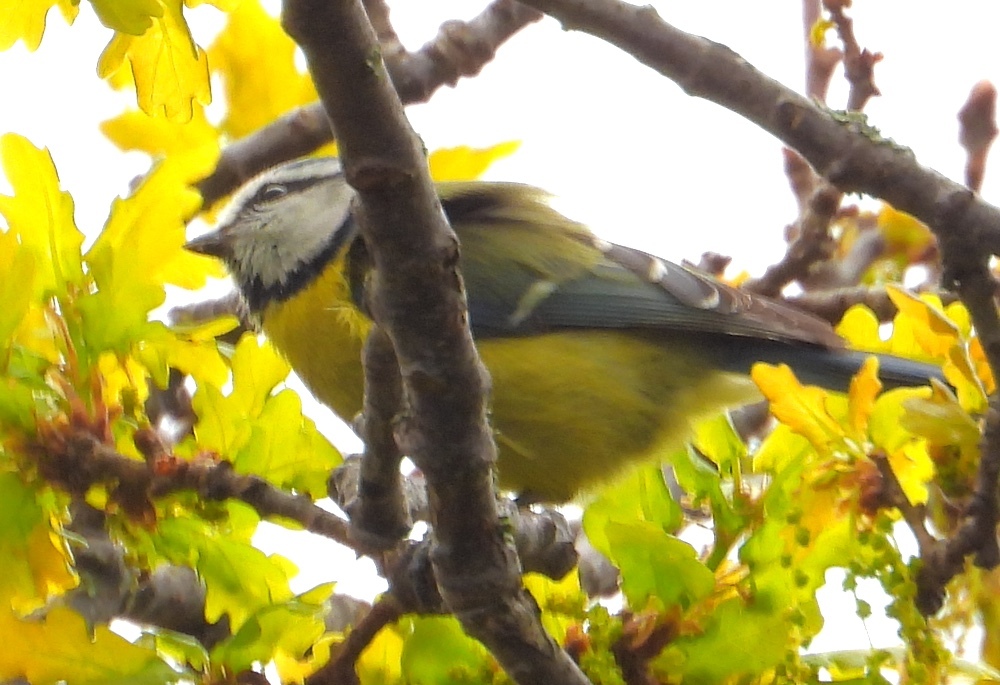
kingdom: Animalia
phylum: Chordata
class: Aves
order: Passeriformes
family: Paridae
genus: Cyanistes
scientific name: Cyanistes caeruleus
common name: Eurasian blue tit
